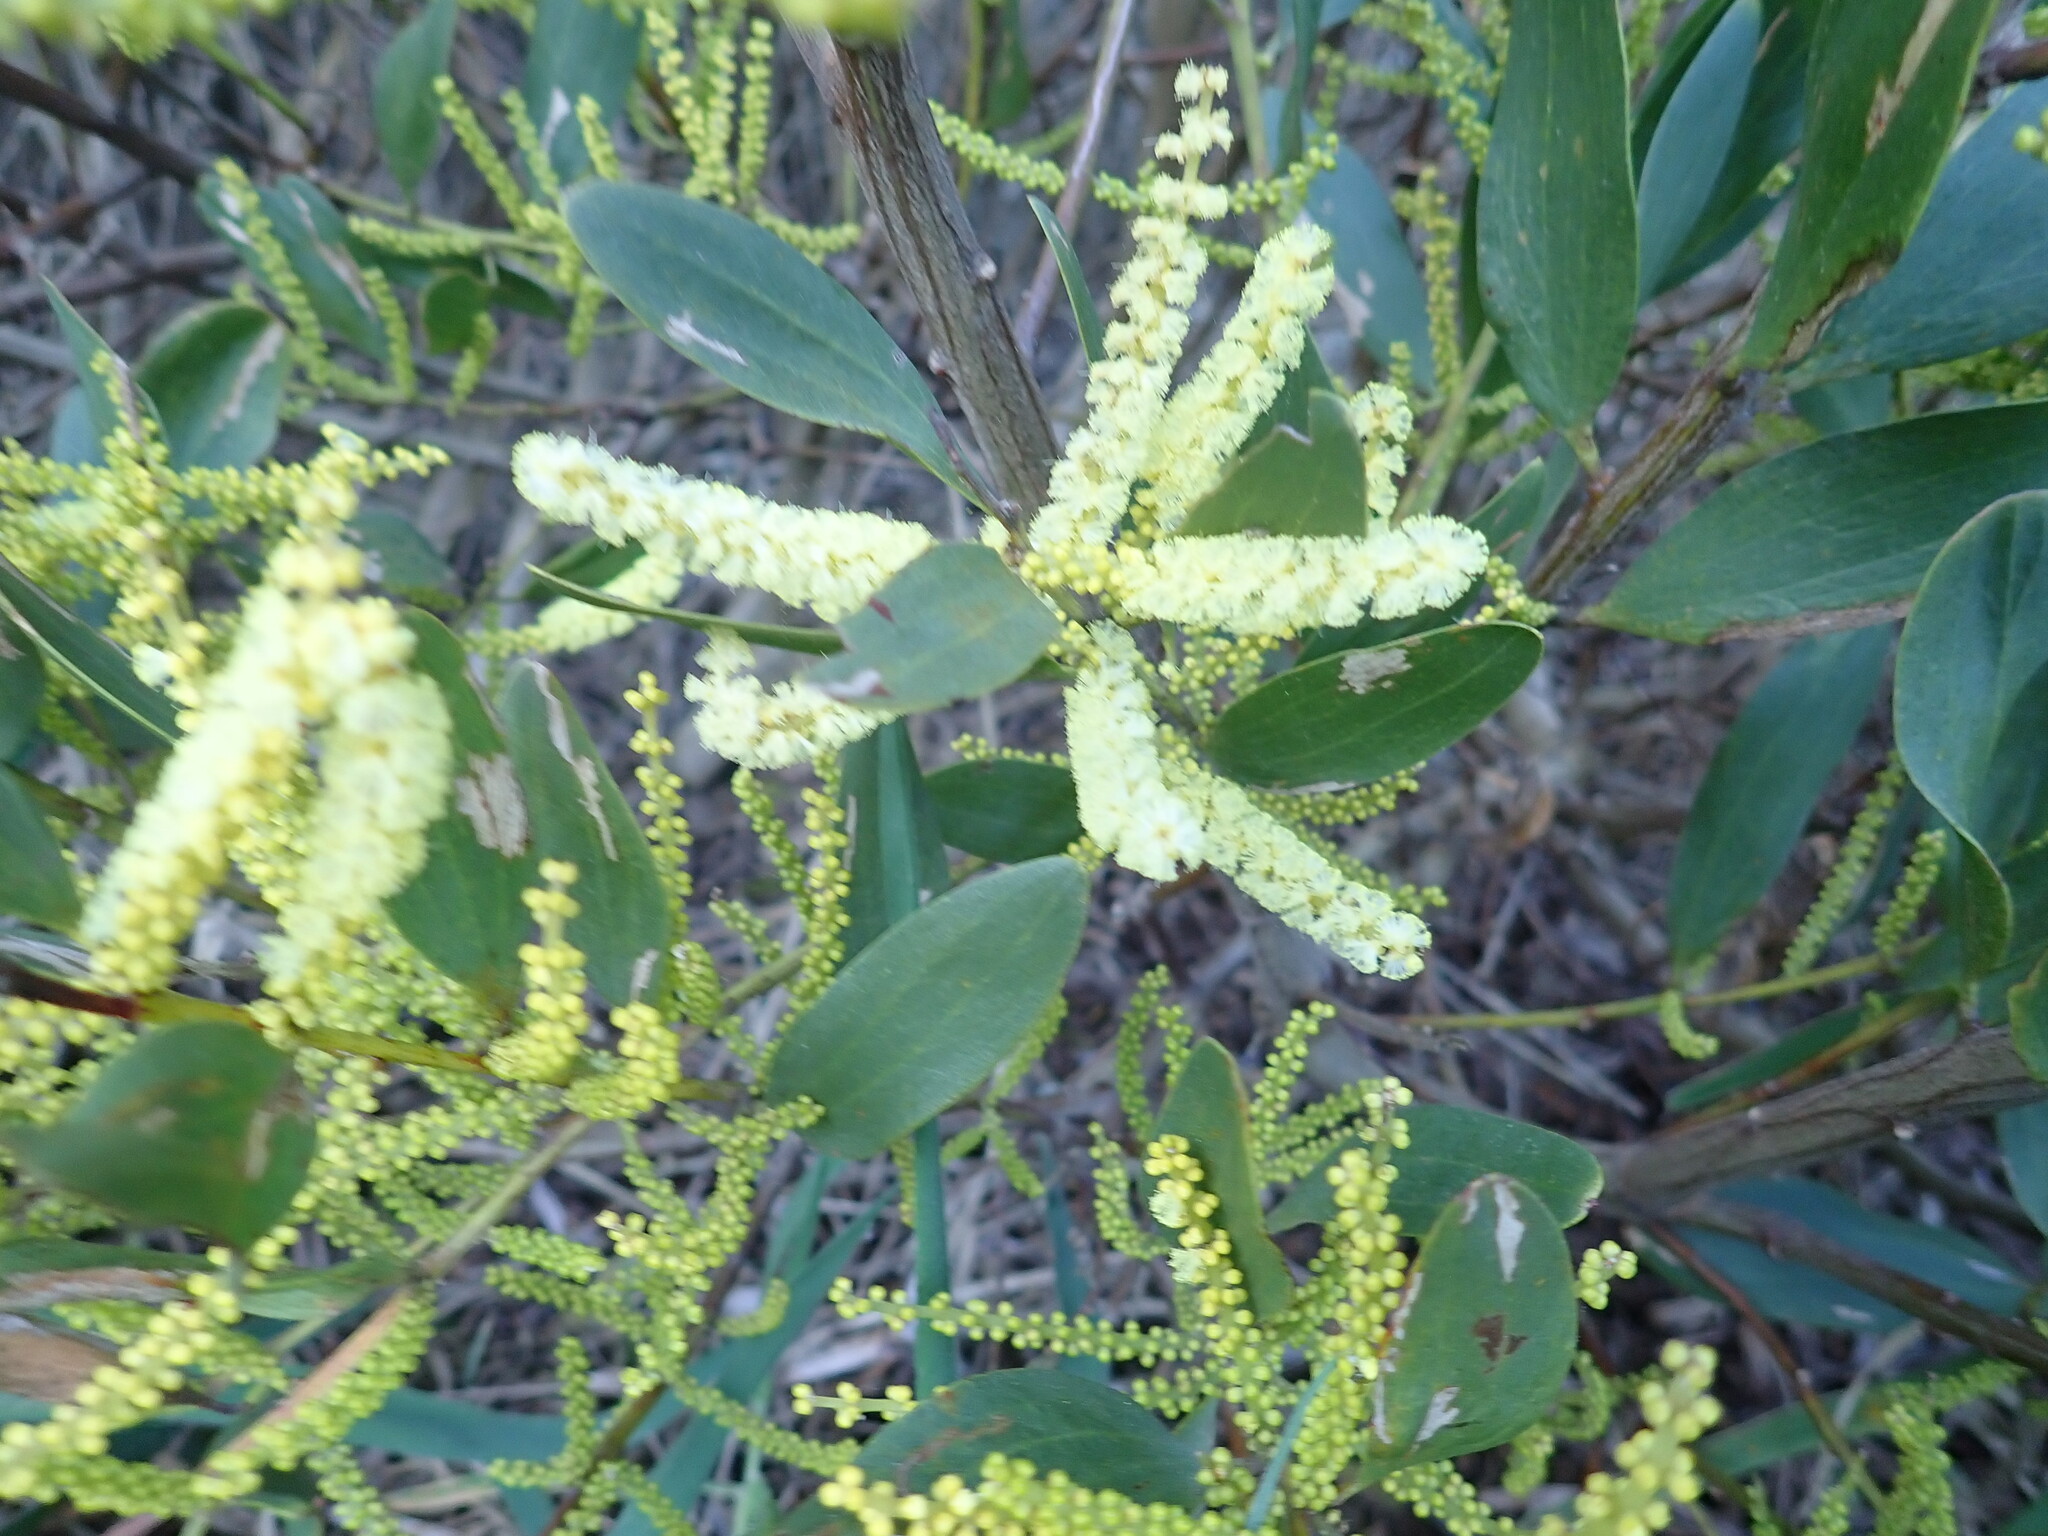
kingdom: Plantae
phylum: Tracheophyta
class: Magnoliopsida
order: Fabales
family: Fabaceae
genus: Acacia
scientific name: Acacia longifolia
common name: Sydney golden wattle
